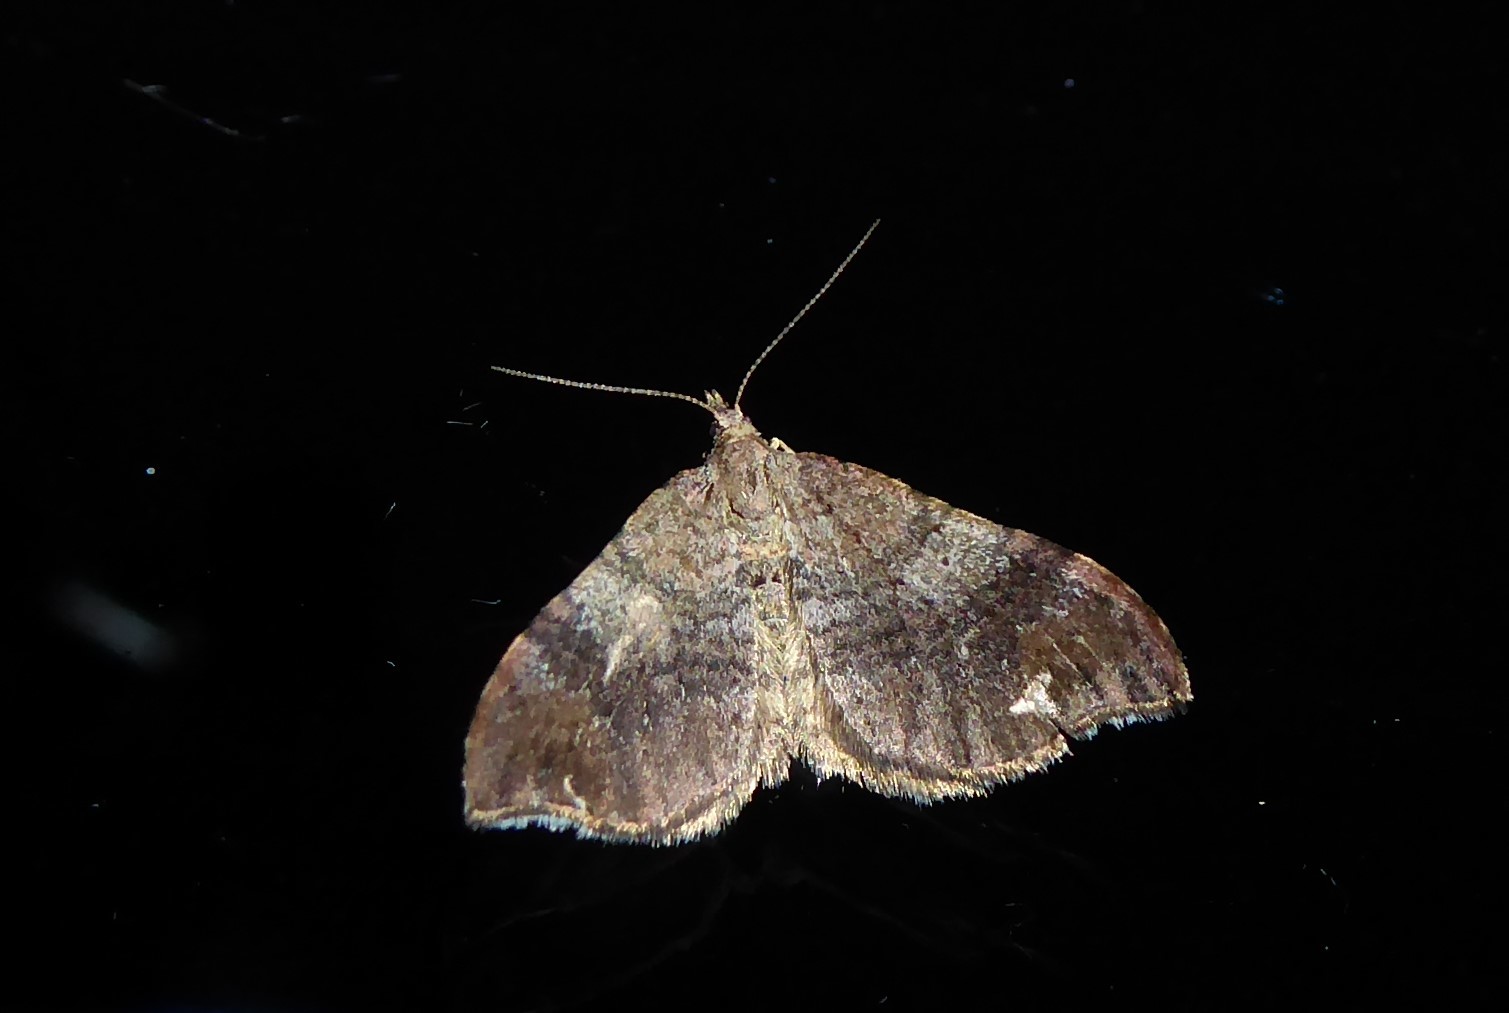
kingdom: Animalia
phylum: Arthropoda
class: Insecta
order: Lepidoptera
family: Geometridae
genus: Homodotis
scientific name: Homodotis megaspilata
